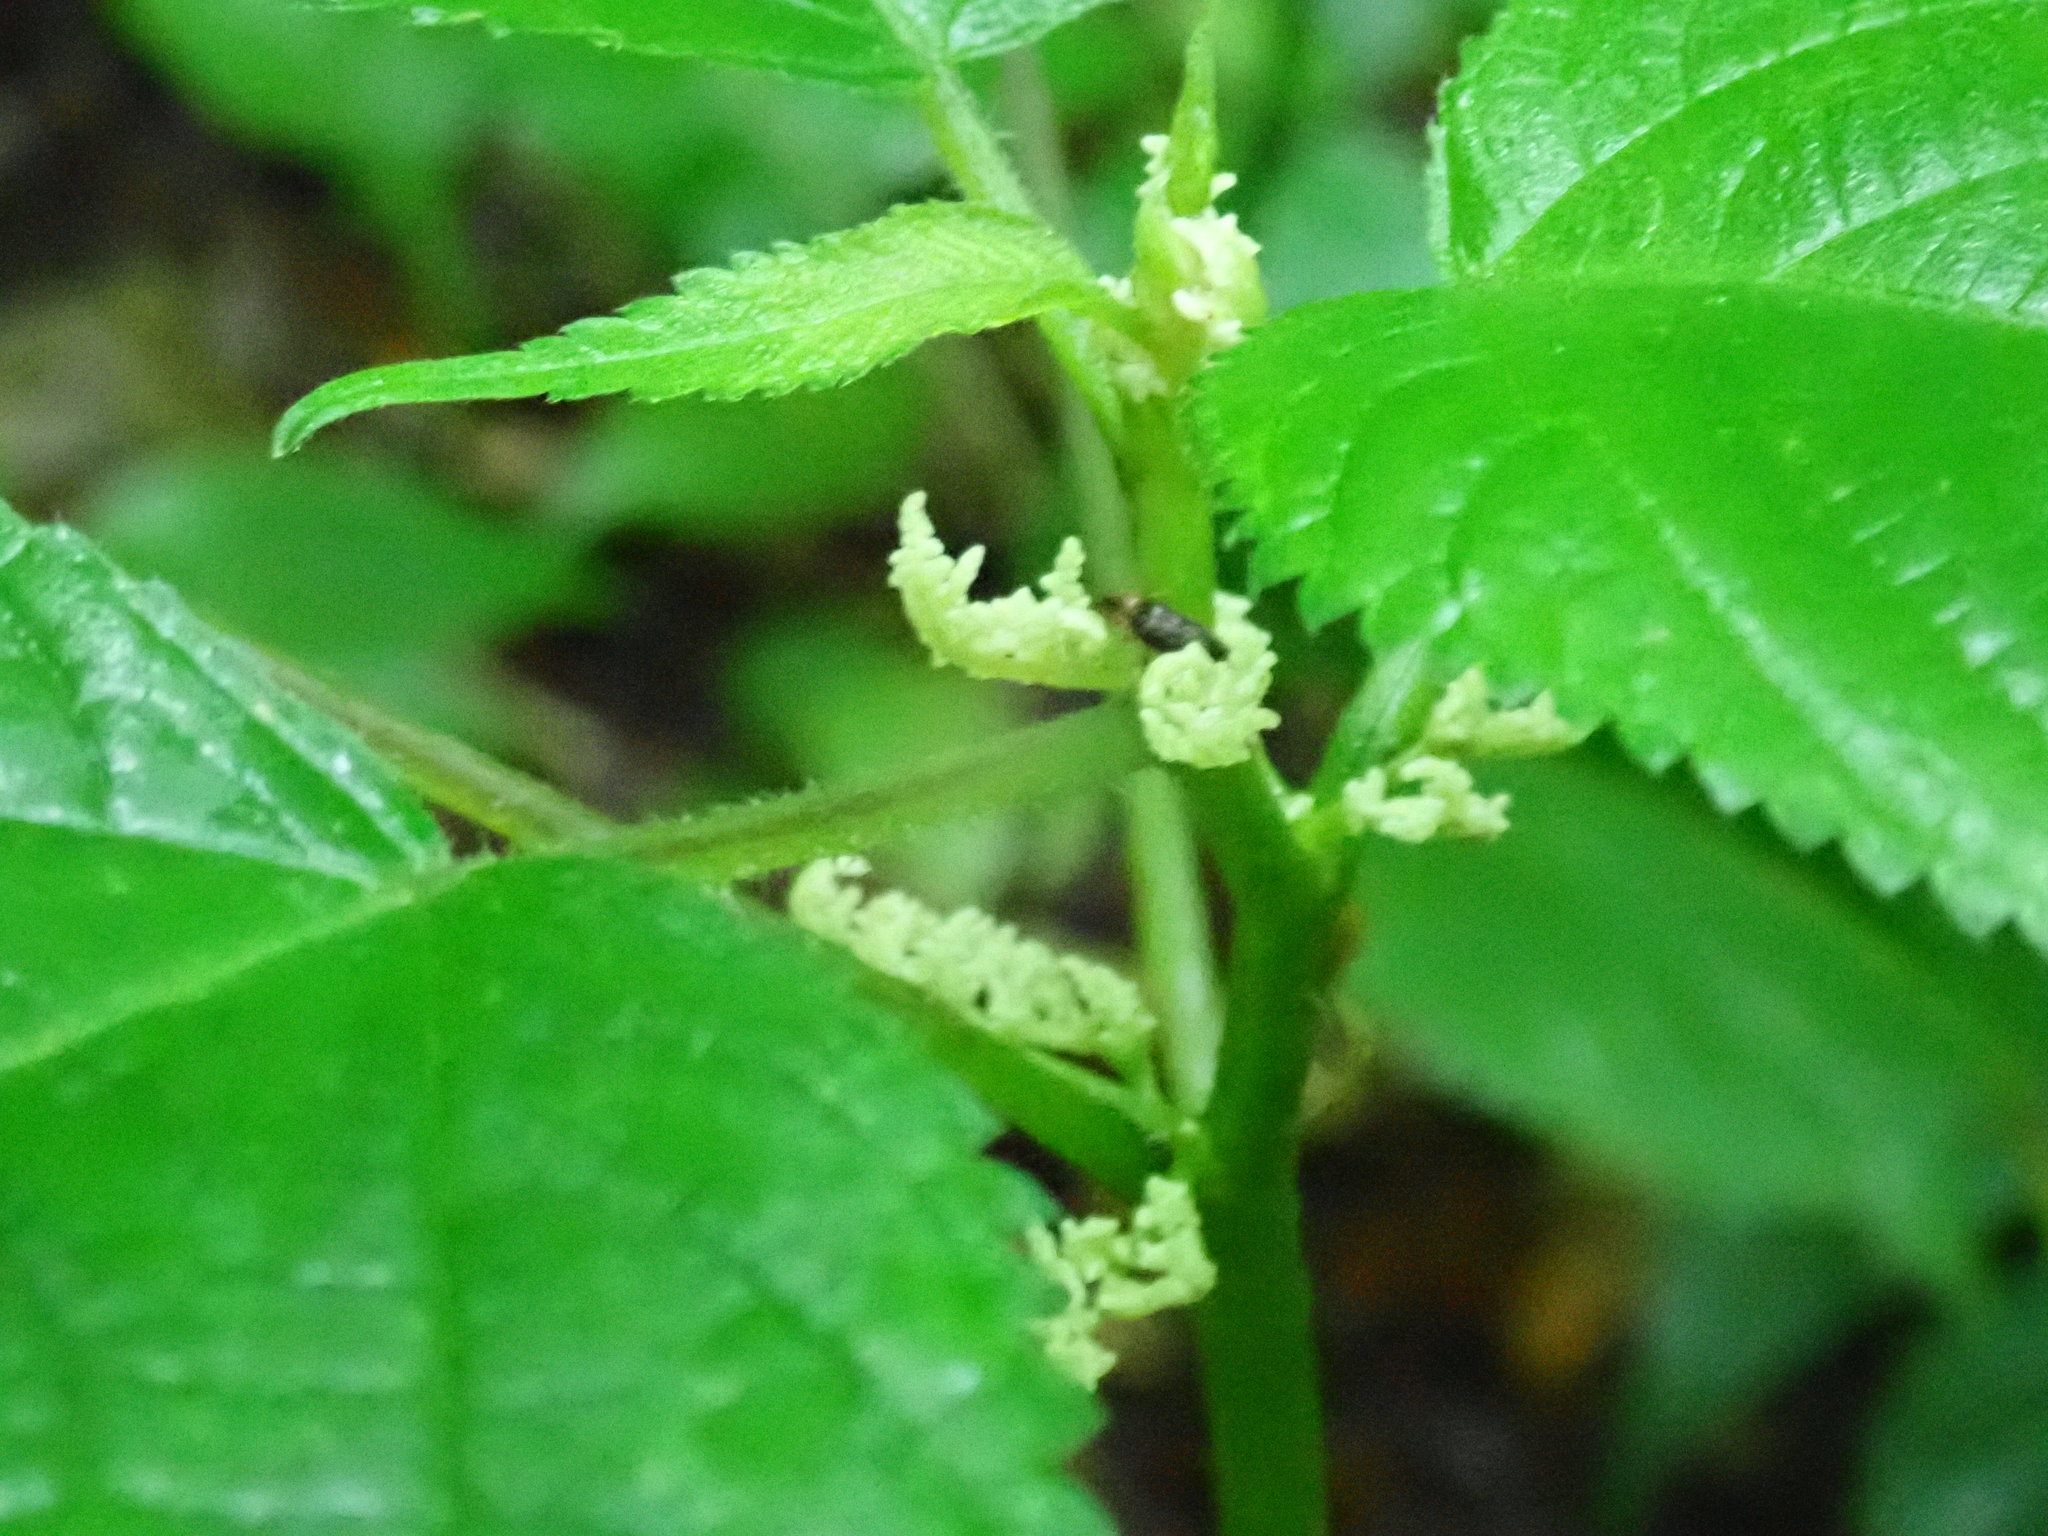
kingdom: Plantae
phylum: Tracheophyta
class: Magnoliopsida
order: Rosales
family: Urticaceae
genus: Laportea
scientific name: Laportea canadensis
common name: Canada nettle
